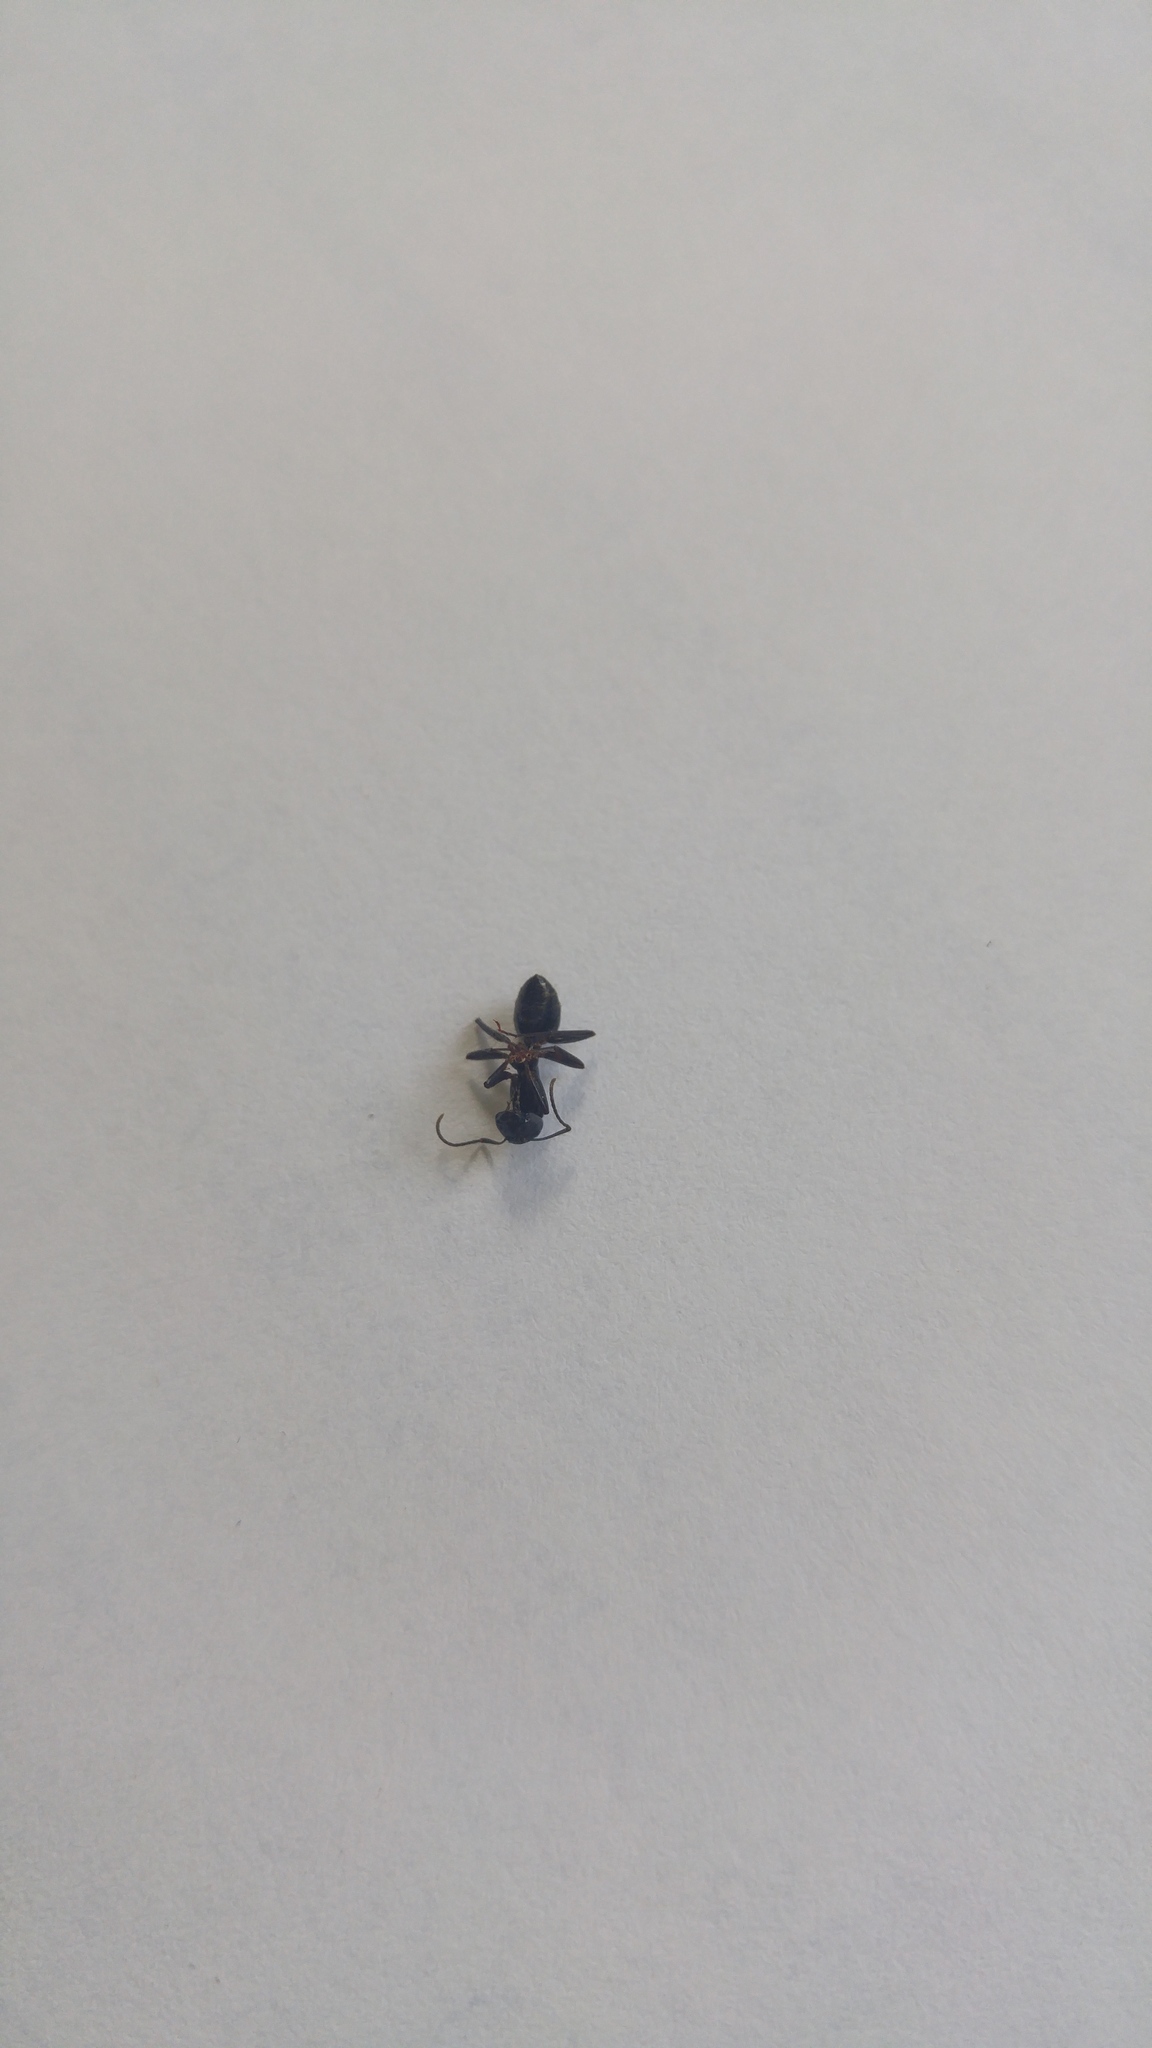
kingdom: Animalia
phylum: Arthropoda
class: Insecta
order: Hymenoptera
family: Formicidae
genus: Camponotus
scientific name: Camponotus pennsylvanicus
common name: Black carpenter ant
